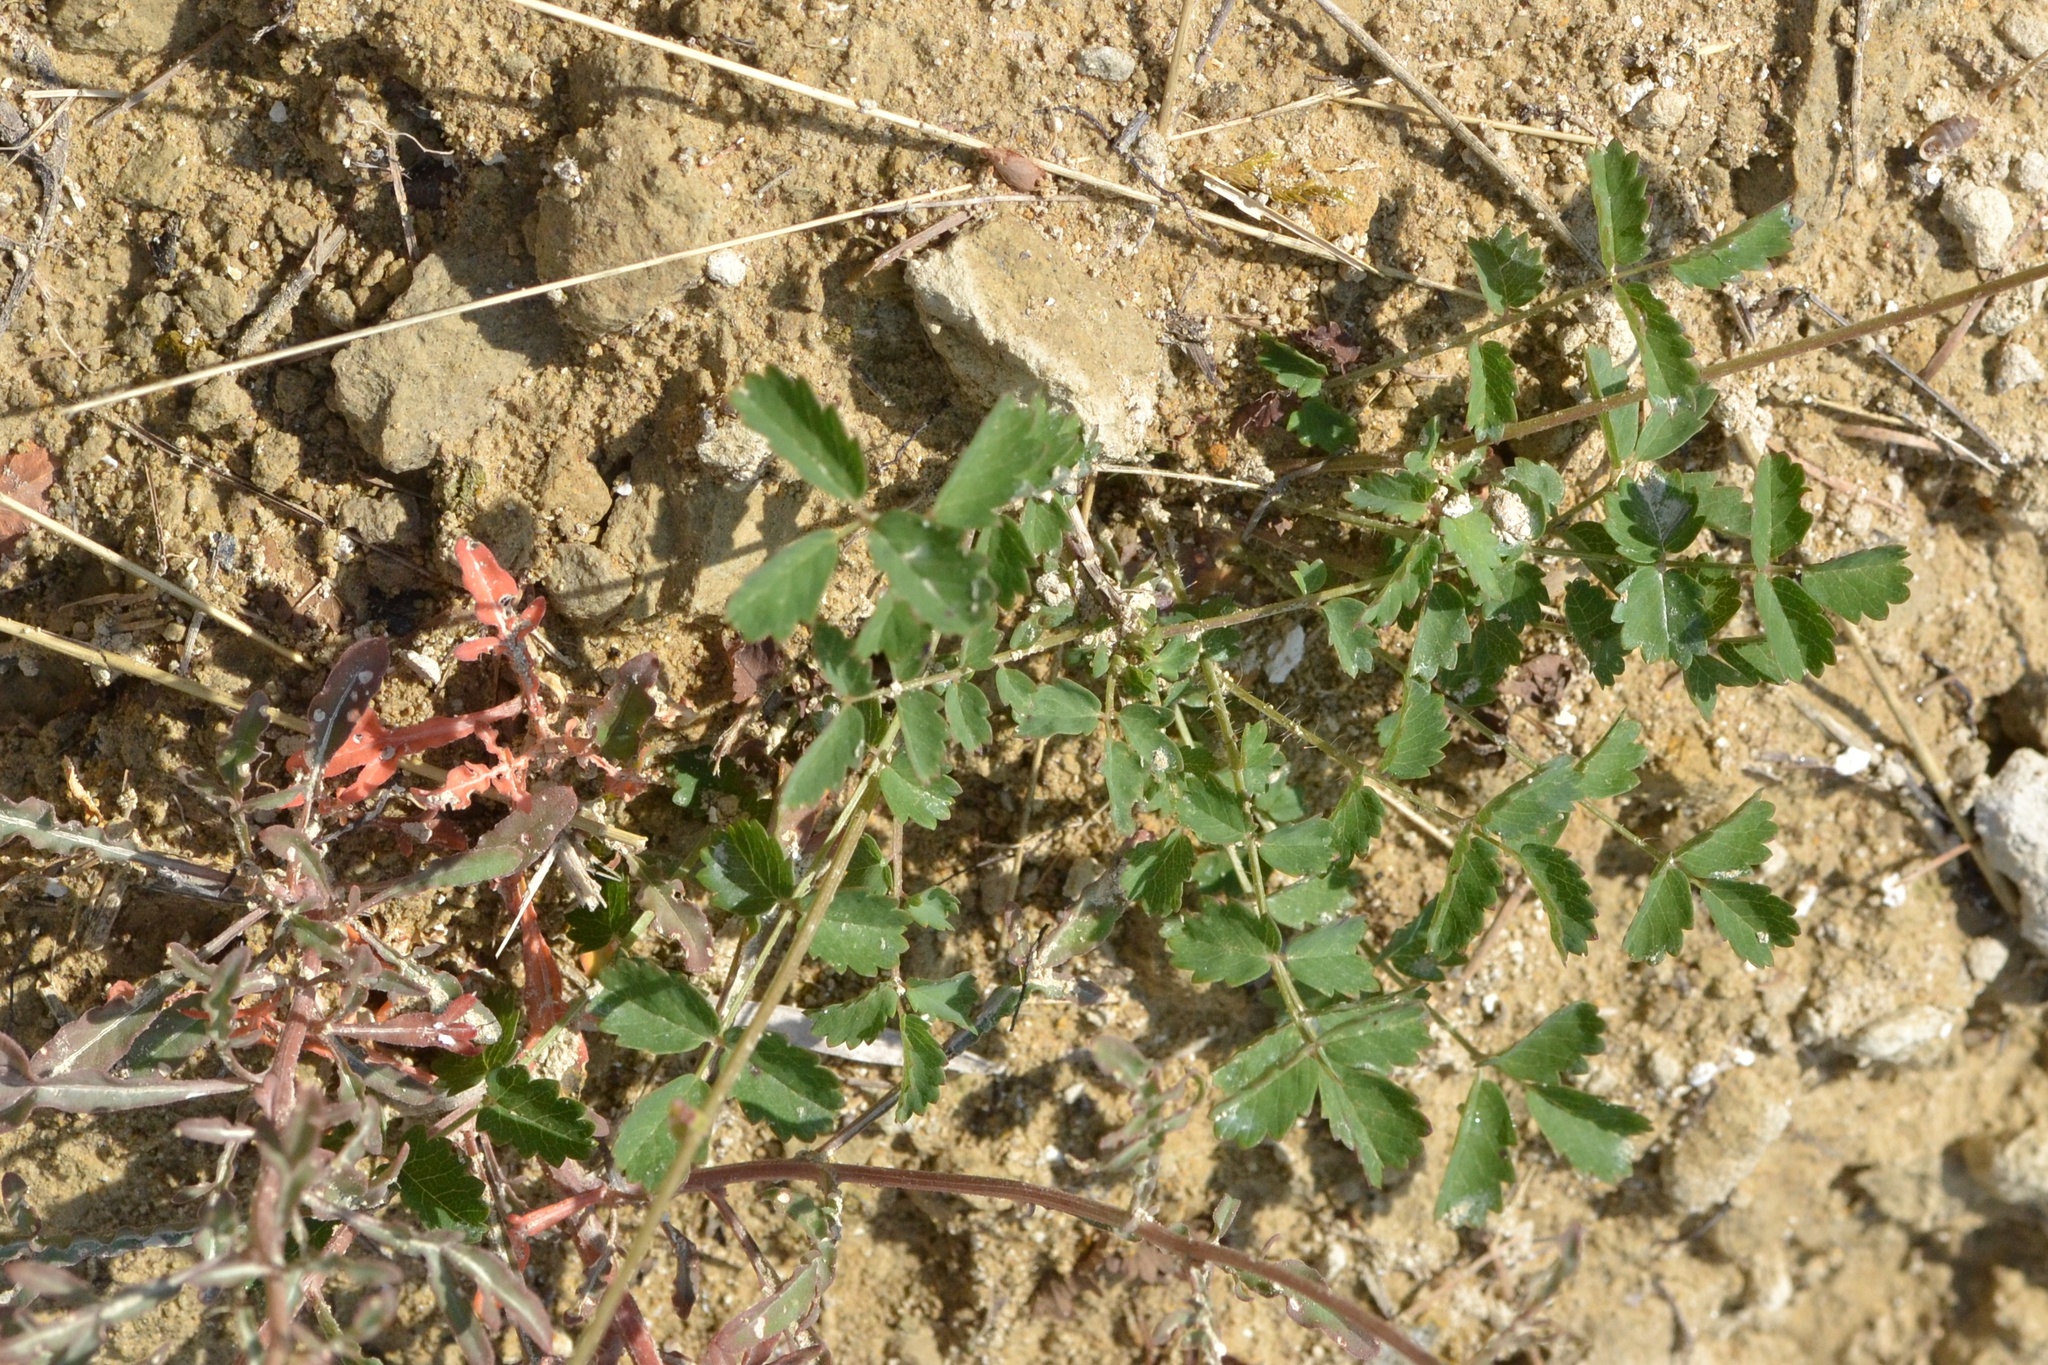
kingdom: Plantae
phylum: Tracheophyta
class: Magnoliopsida
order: Rosales
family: Rosaceae
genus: Poterium
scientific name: Poterium sanguisorba
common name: Salad burnet
